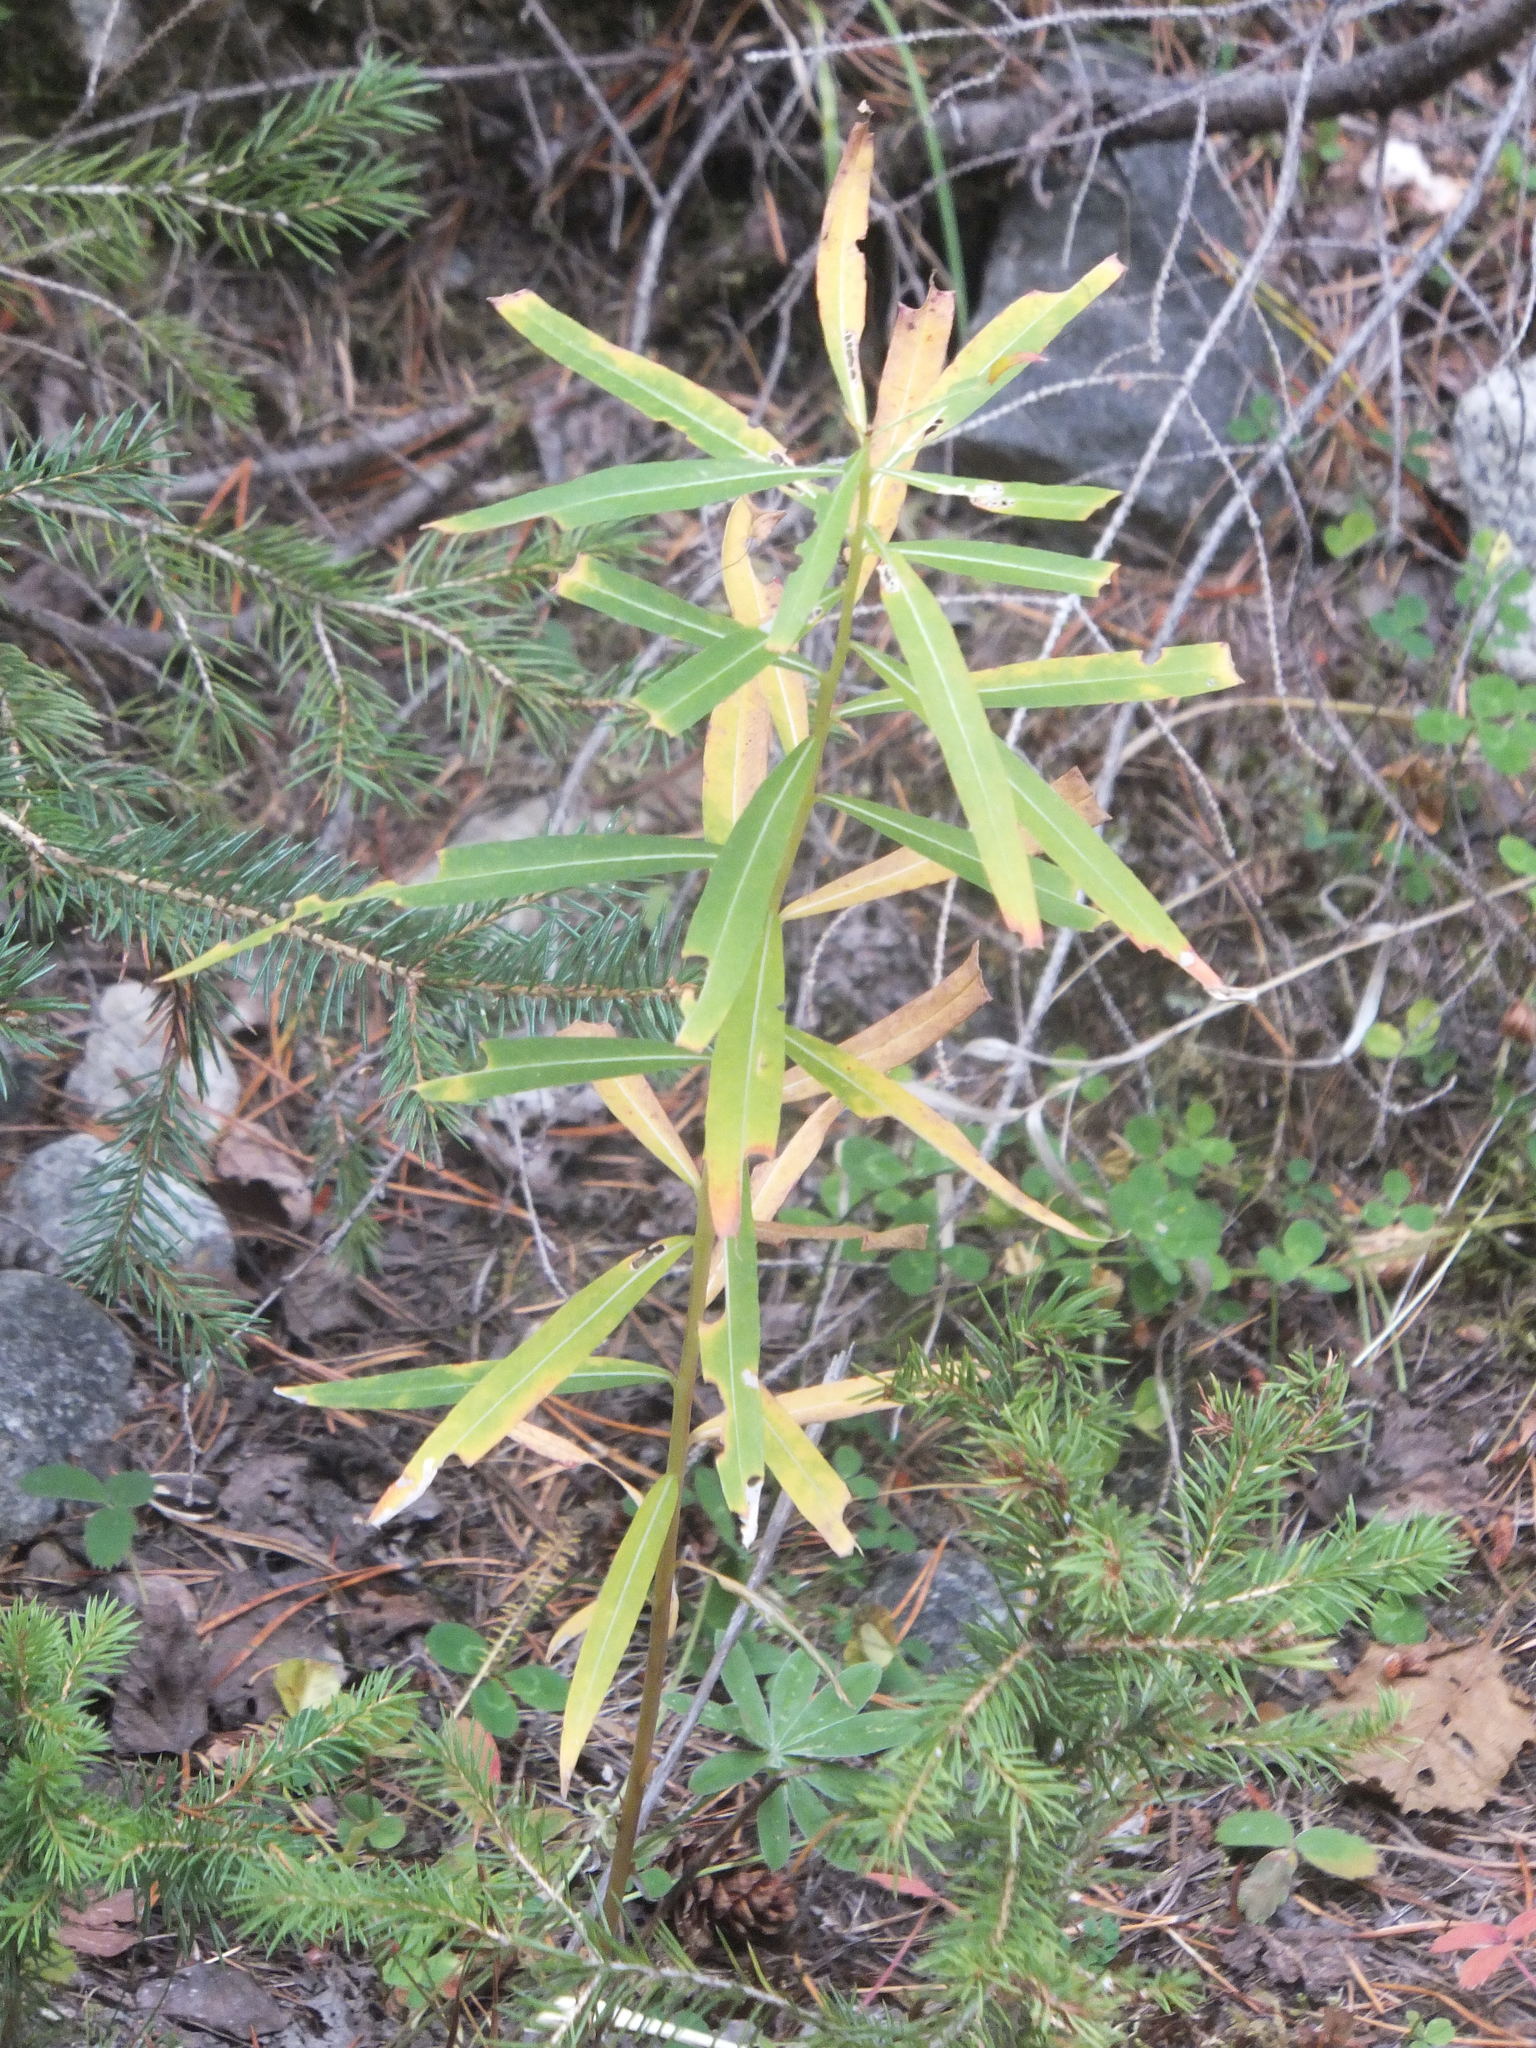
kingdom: Plantae
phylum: Tracheophyta
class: Magnoliopsida
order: Myrtales
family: Onagraceae
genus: Chamaenerion
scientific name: Chamaenerion angustifolium
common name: Fireweed
